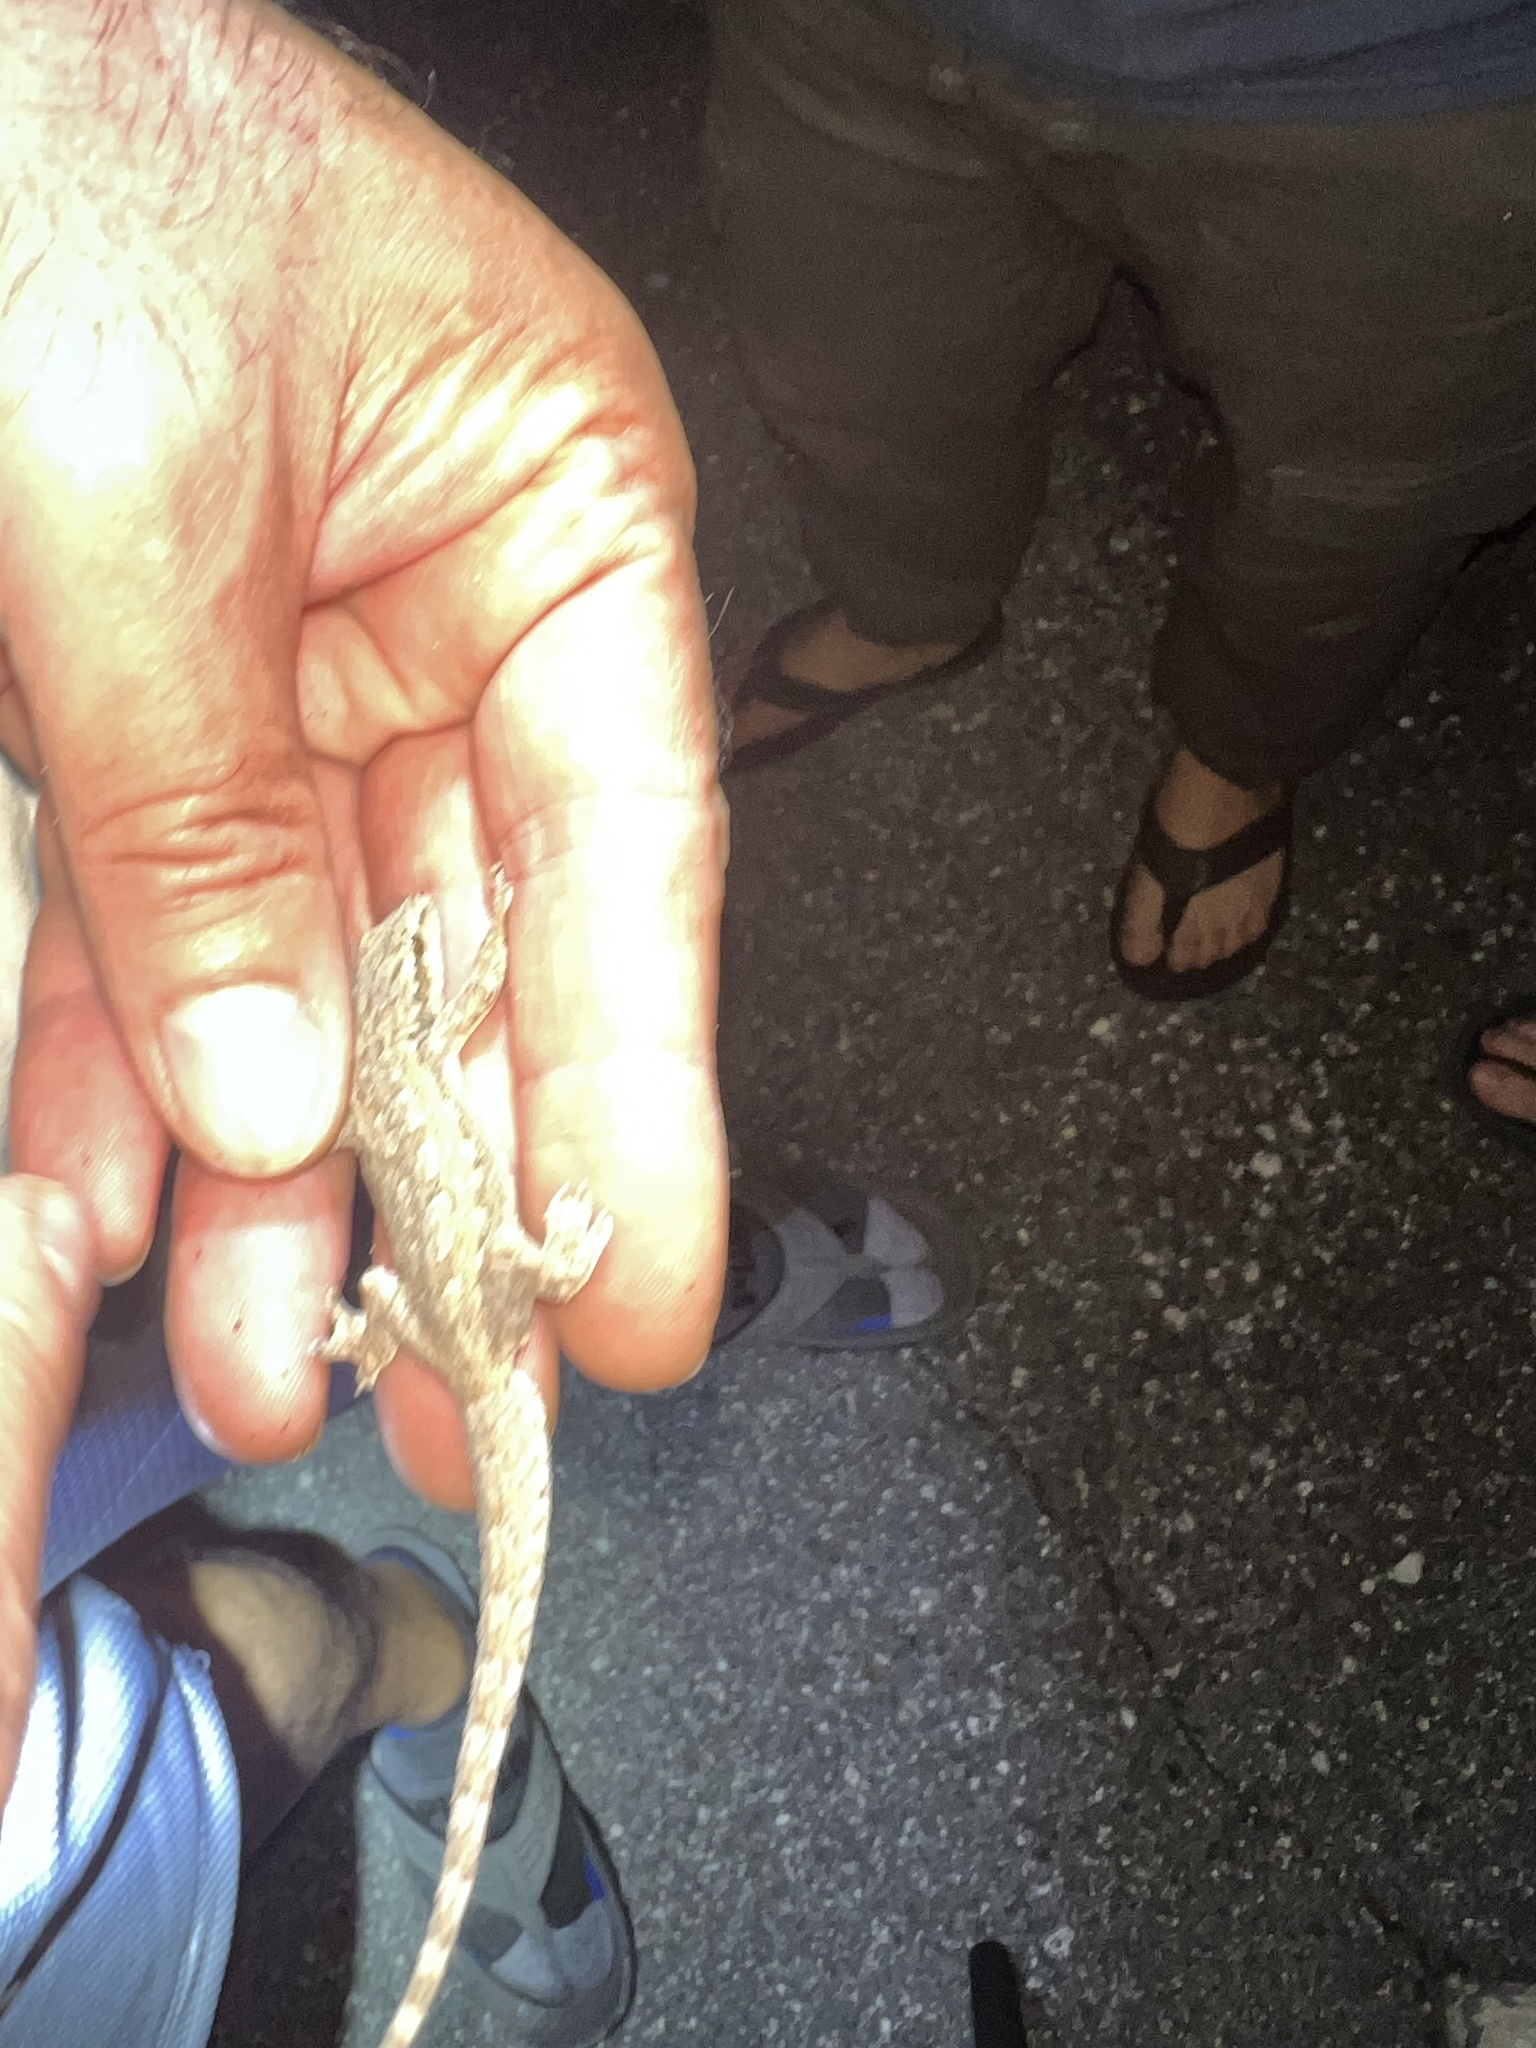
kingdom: Animalia
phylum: Chordata
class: Squamata
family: Gekkonidae
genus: Hemidactylus
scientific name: Hemidactylus platyurus
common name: Flat-tailed house gecko
